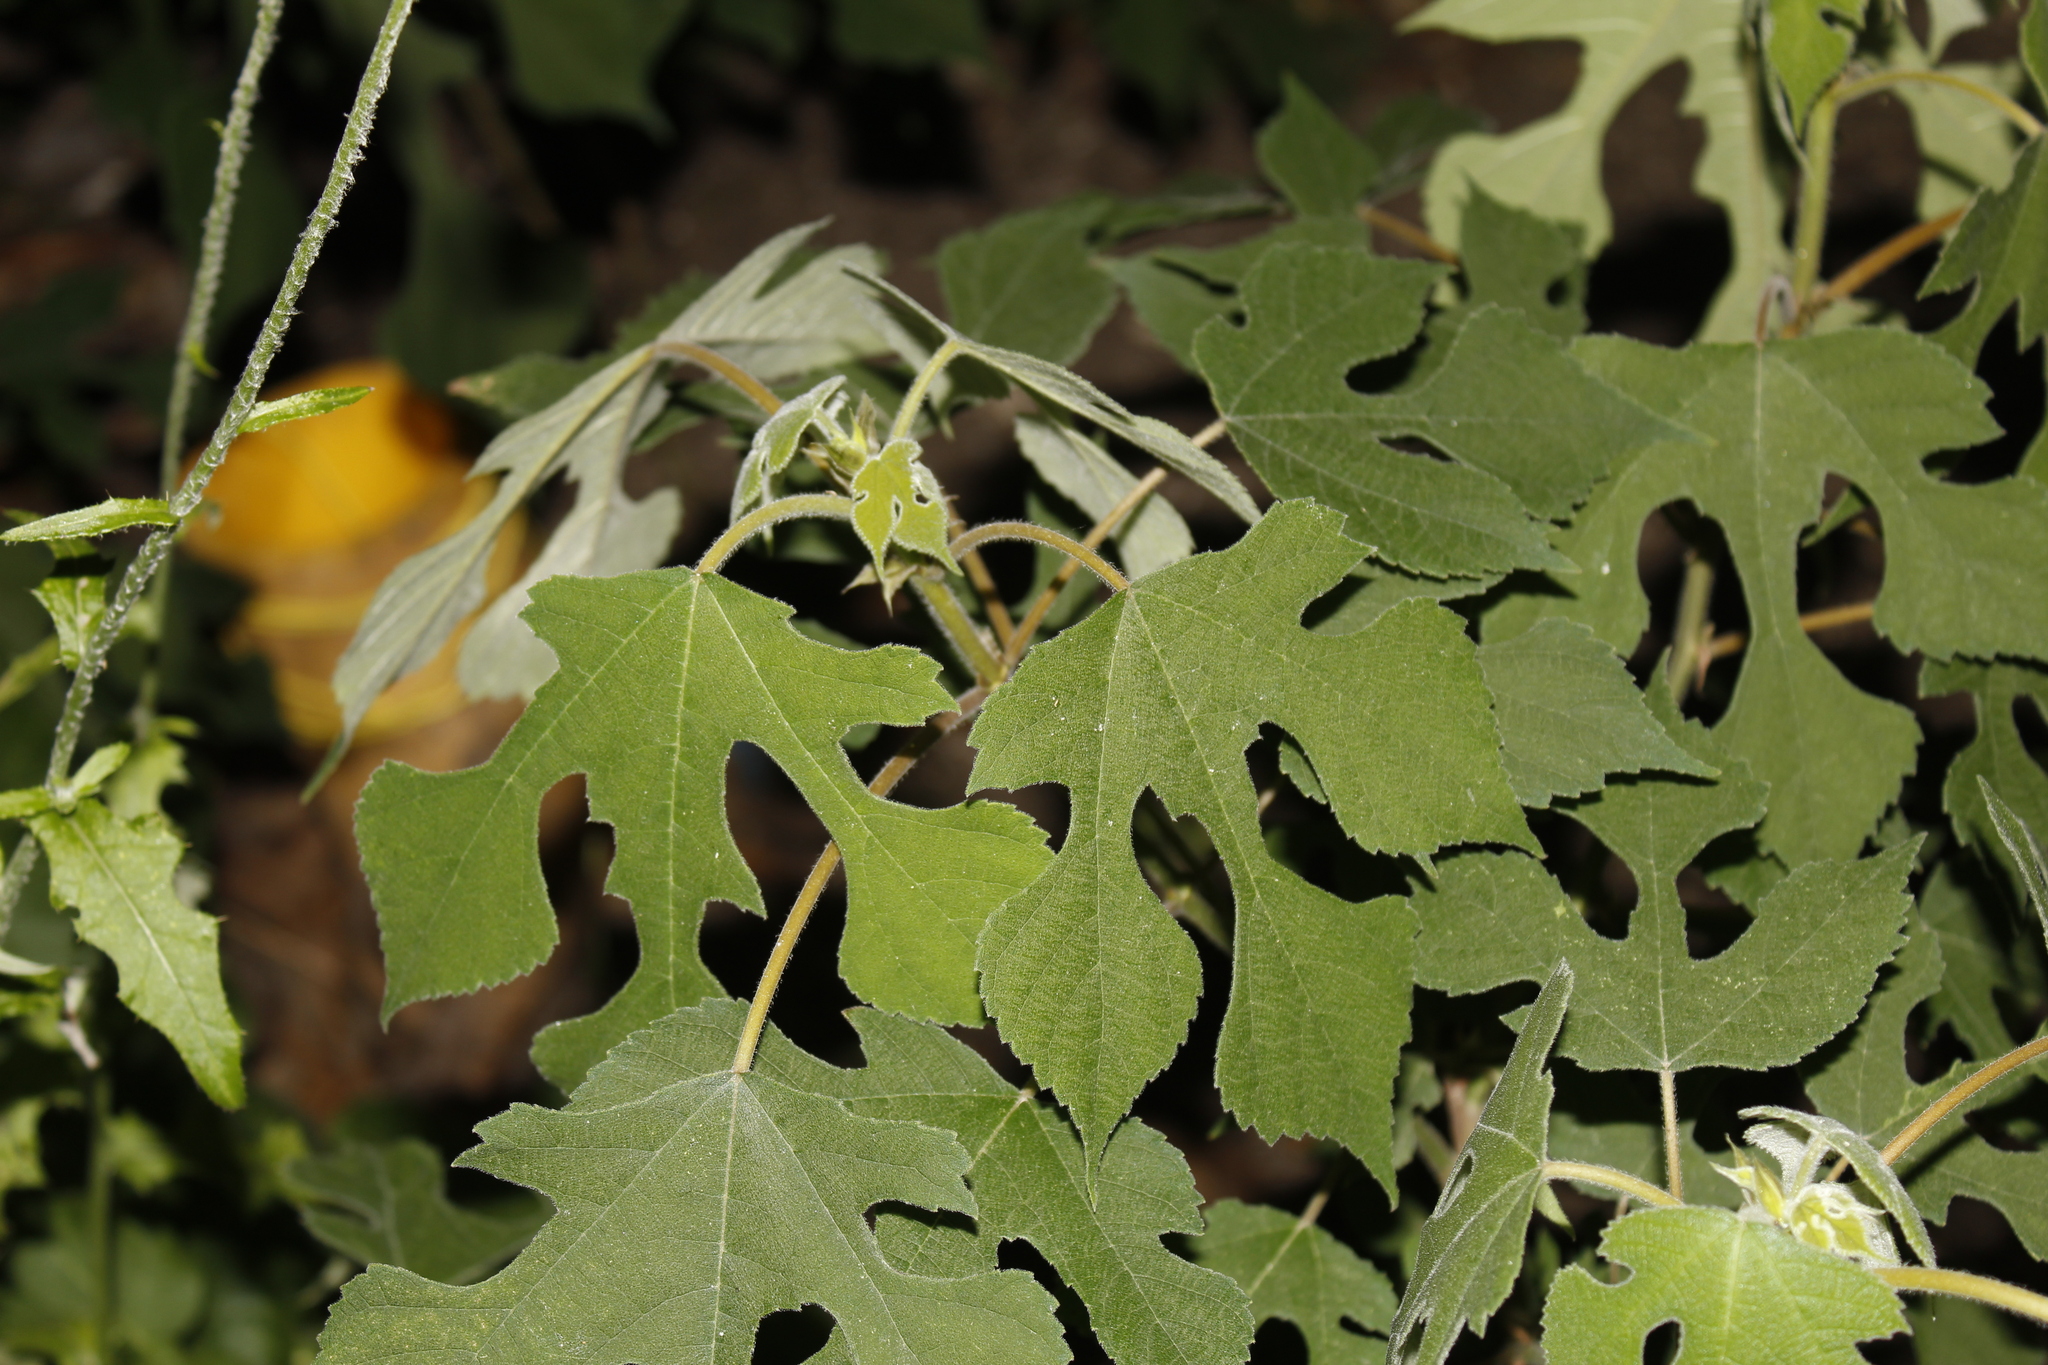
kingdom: Plantae
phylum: Tracheophyta
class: Magnoliopsida
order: Rosales
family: Moraceae
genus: Broussonetia
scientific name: Broussonetia papyrifera
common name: Paper mulberry
